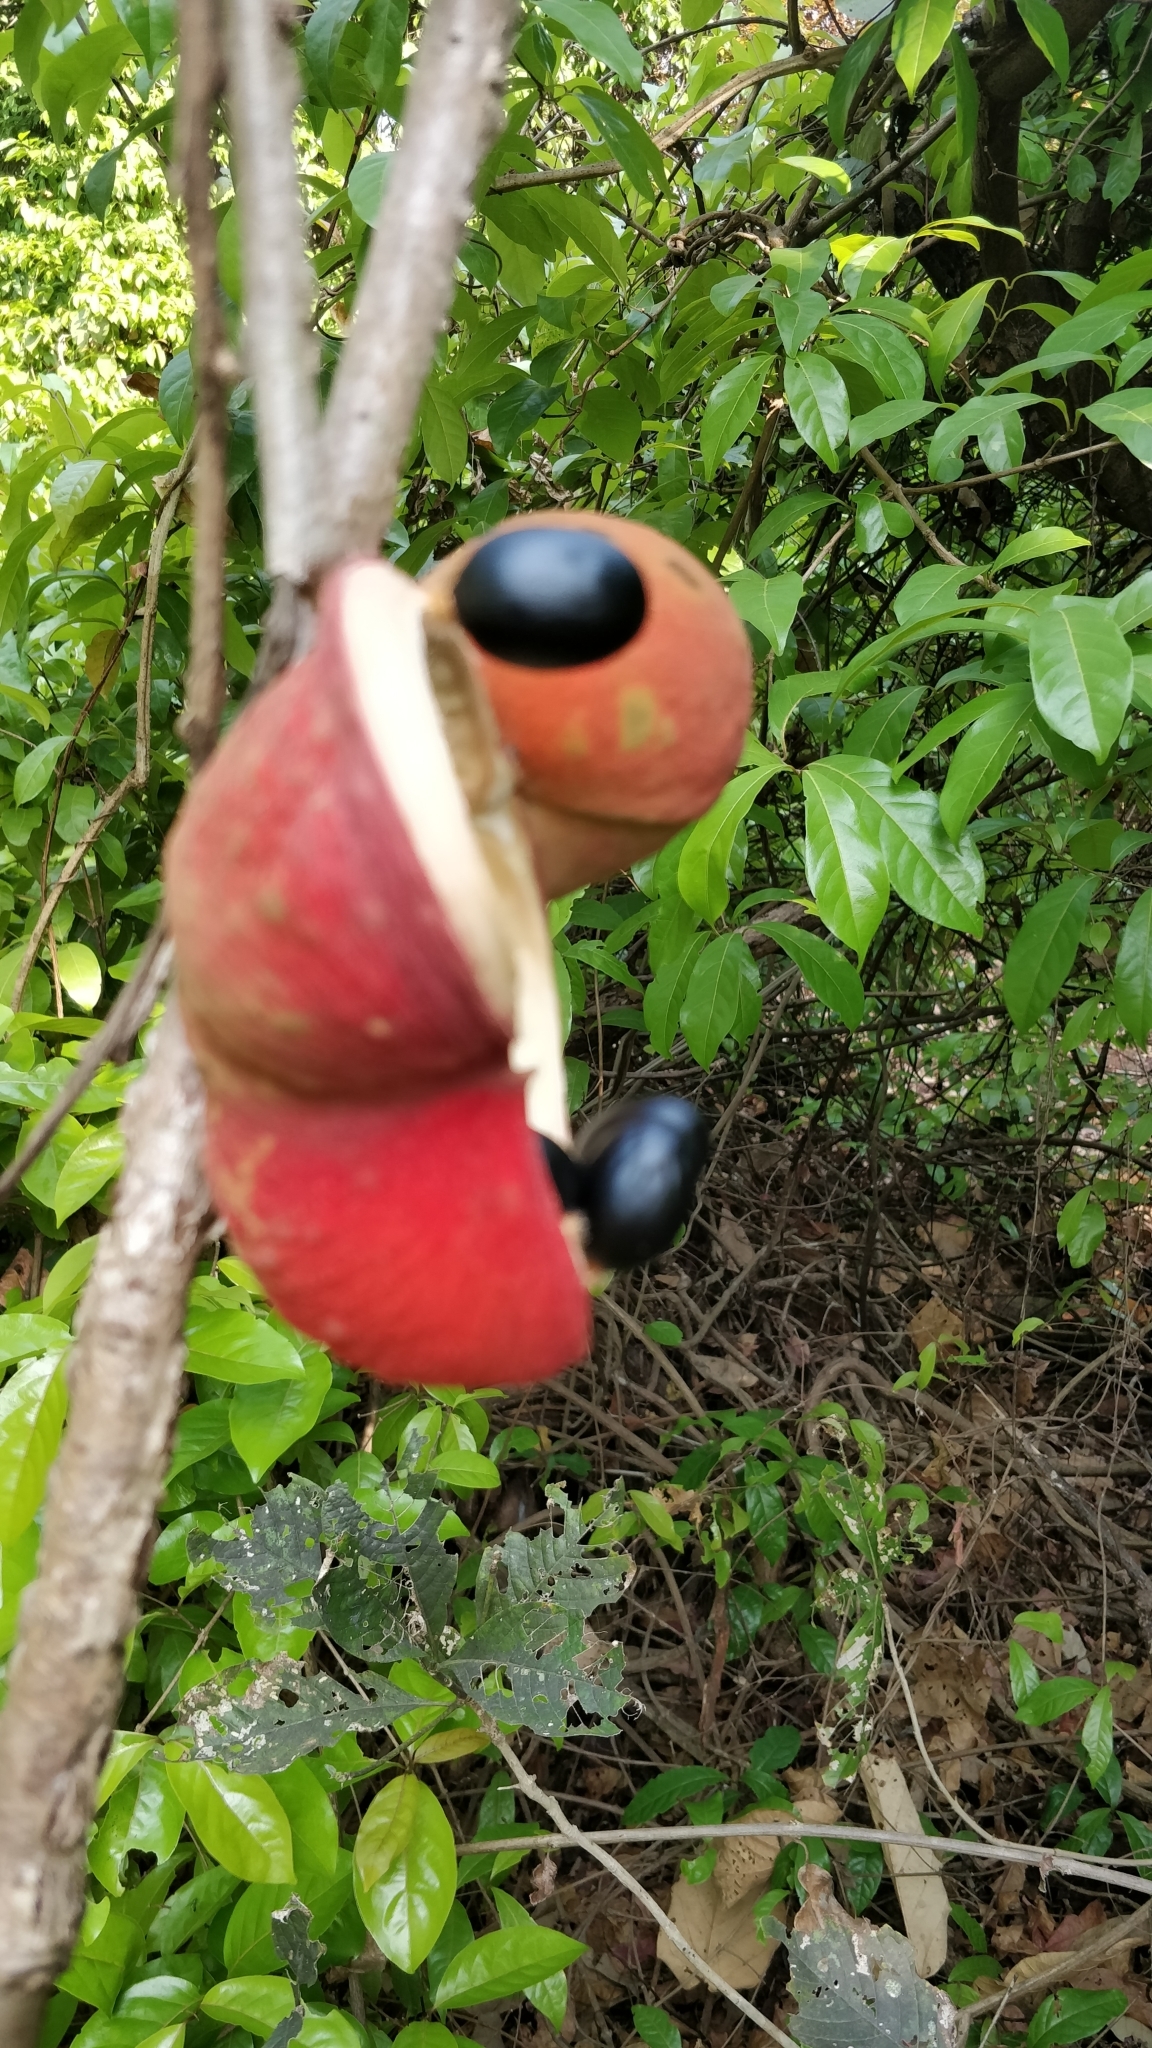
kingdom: Plantae
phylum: Tracheophyta
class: Magnoliopsida
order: Malvales
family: Malvaceae
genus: Sterculia
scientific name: Sterculia guttata
